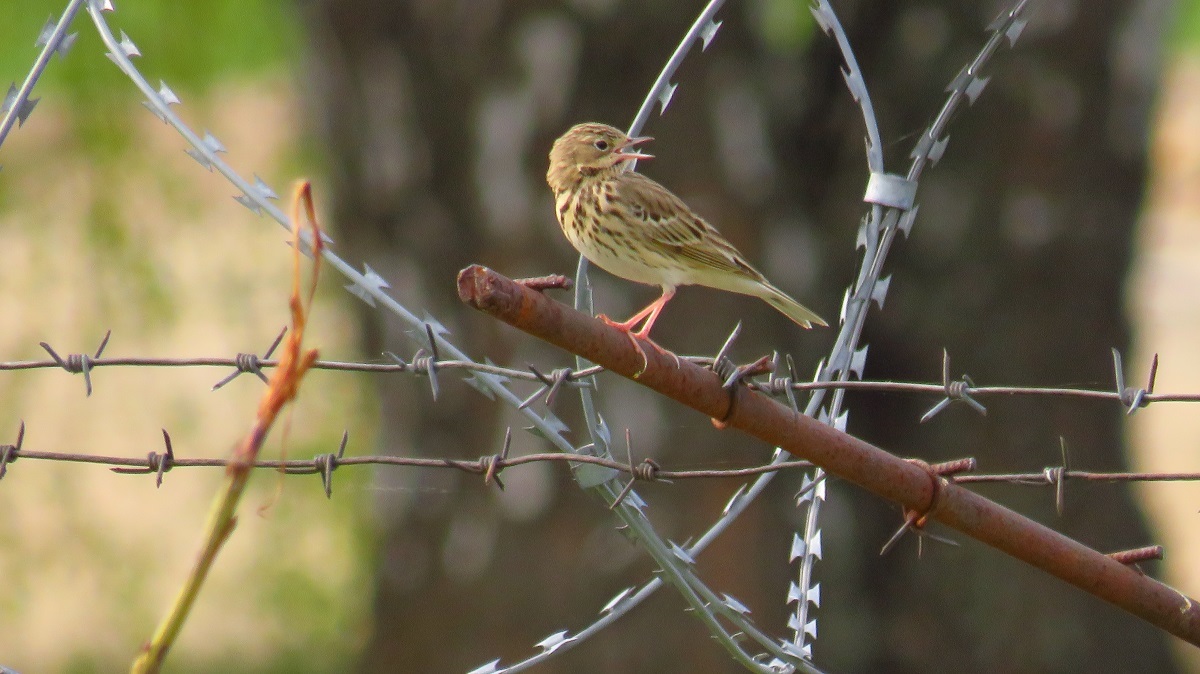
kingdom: Animalia
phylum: Chordata
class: Aves
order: Passeriformes
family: Motacillidae
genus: Anthus
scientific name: Anthus trivialis
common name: Tree pipit
